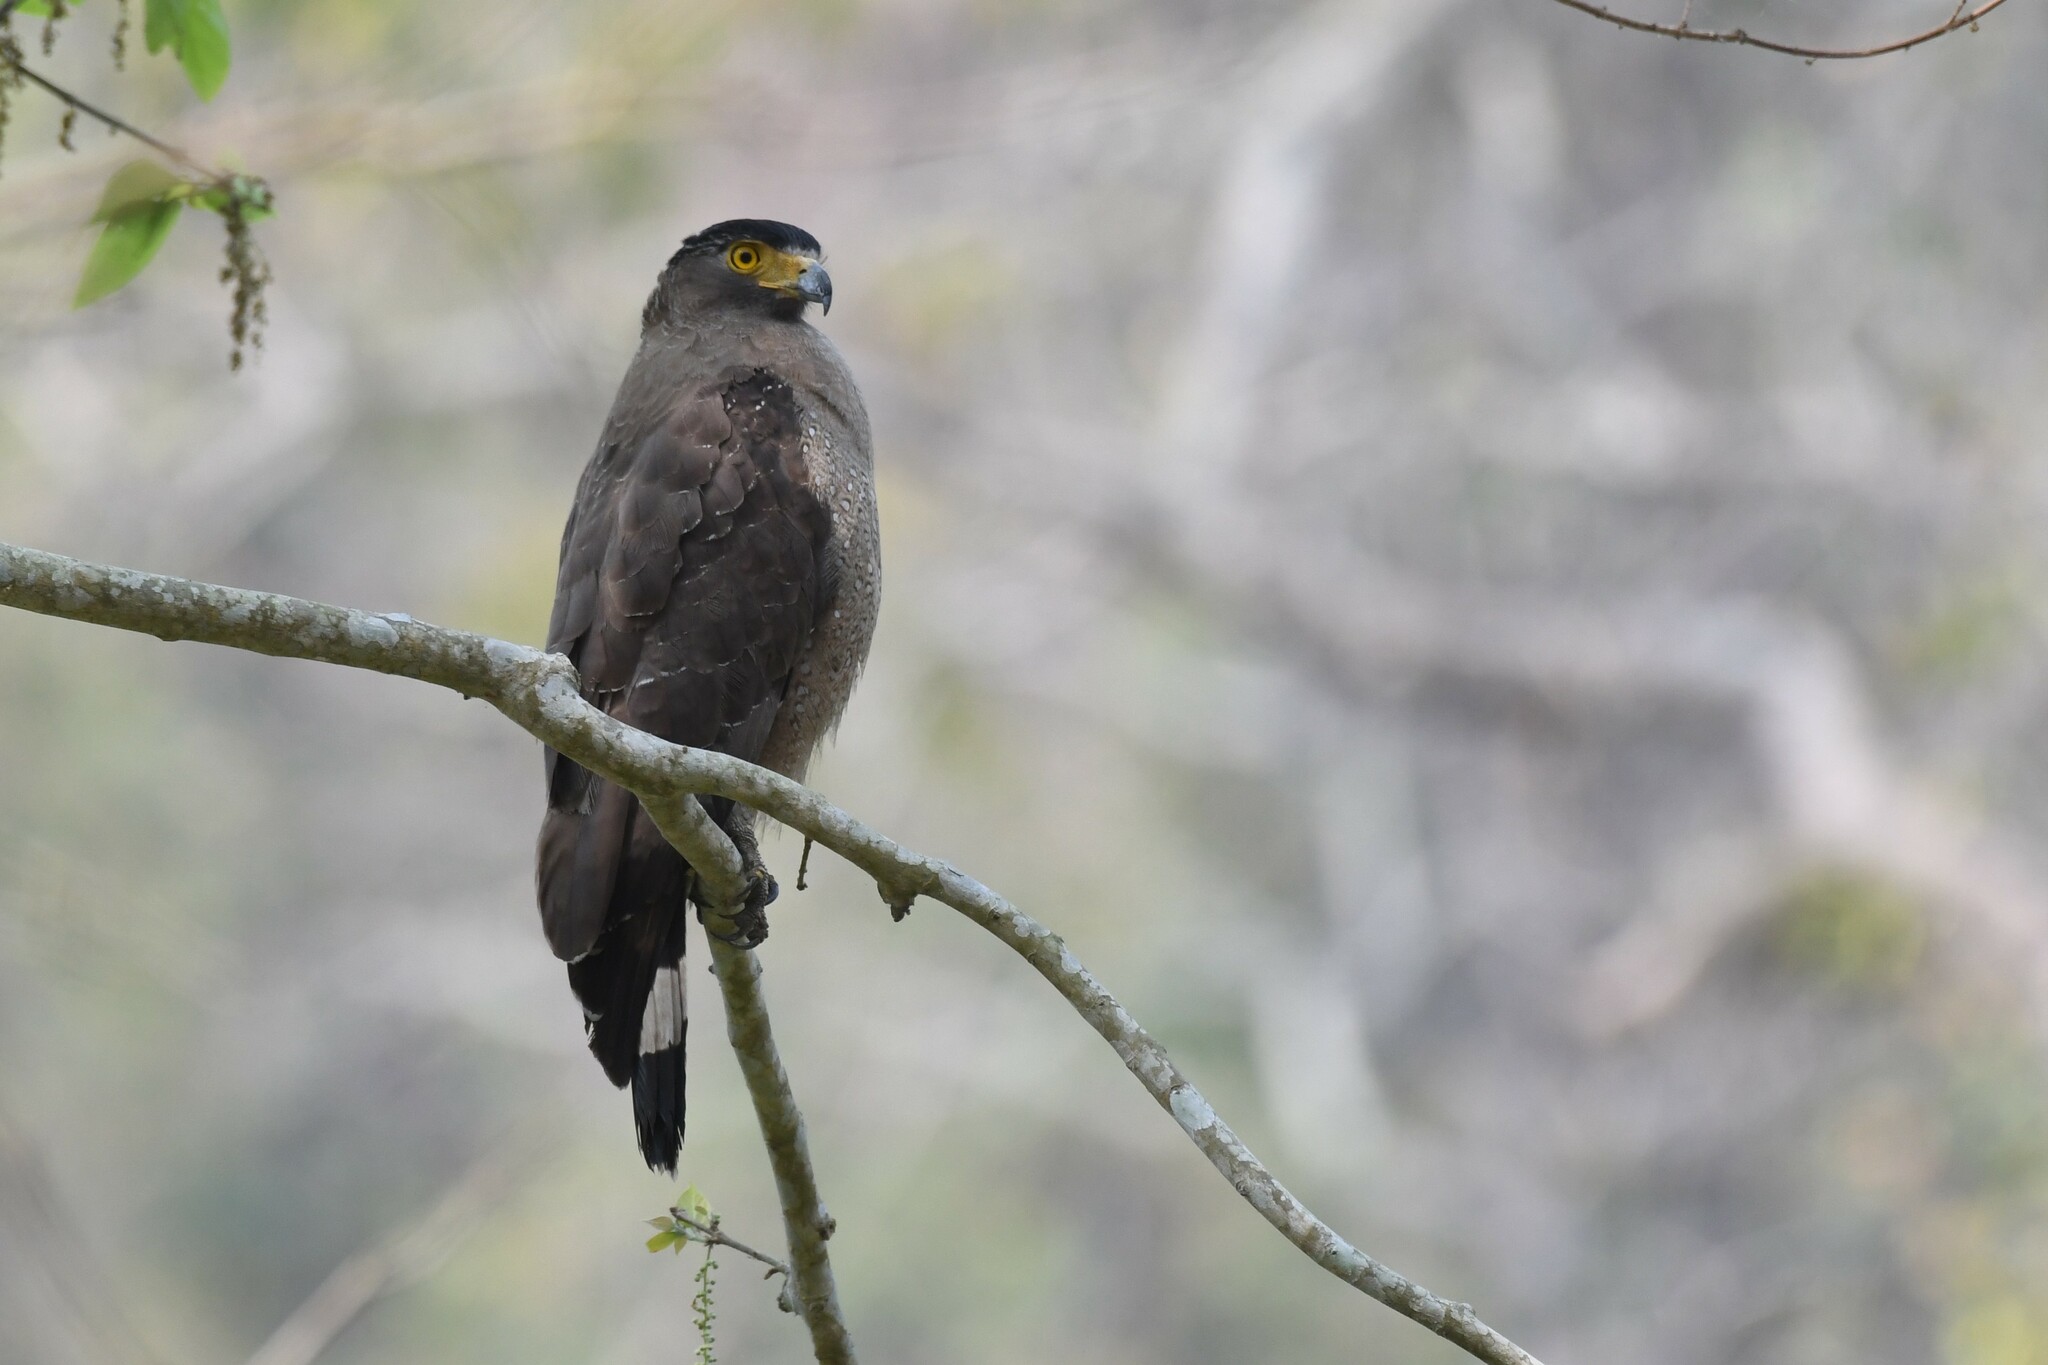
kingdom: Animalia
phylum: Chordata
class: Aves
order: Accipitriformes
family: Accipitridae
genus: Spilornis
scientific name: Spilornis cheela
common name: Crested serpent eagle
